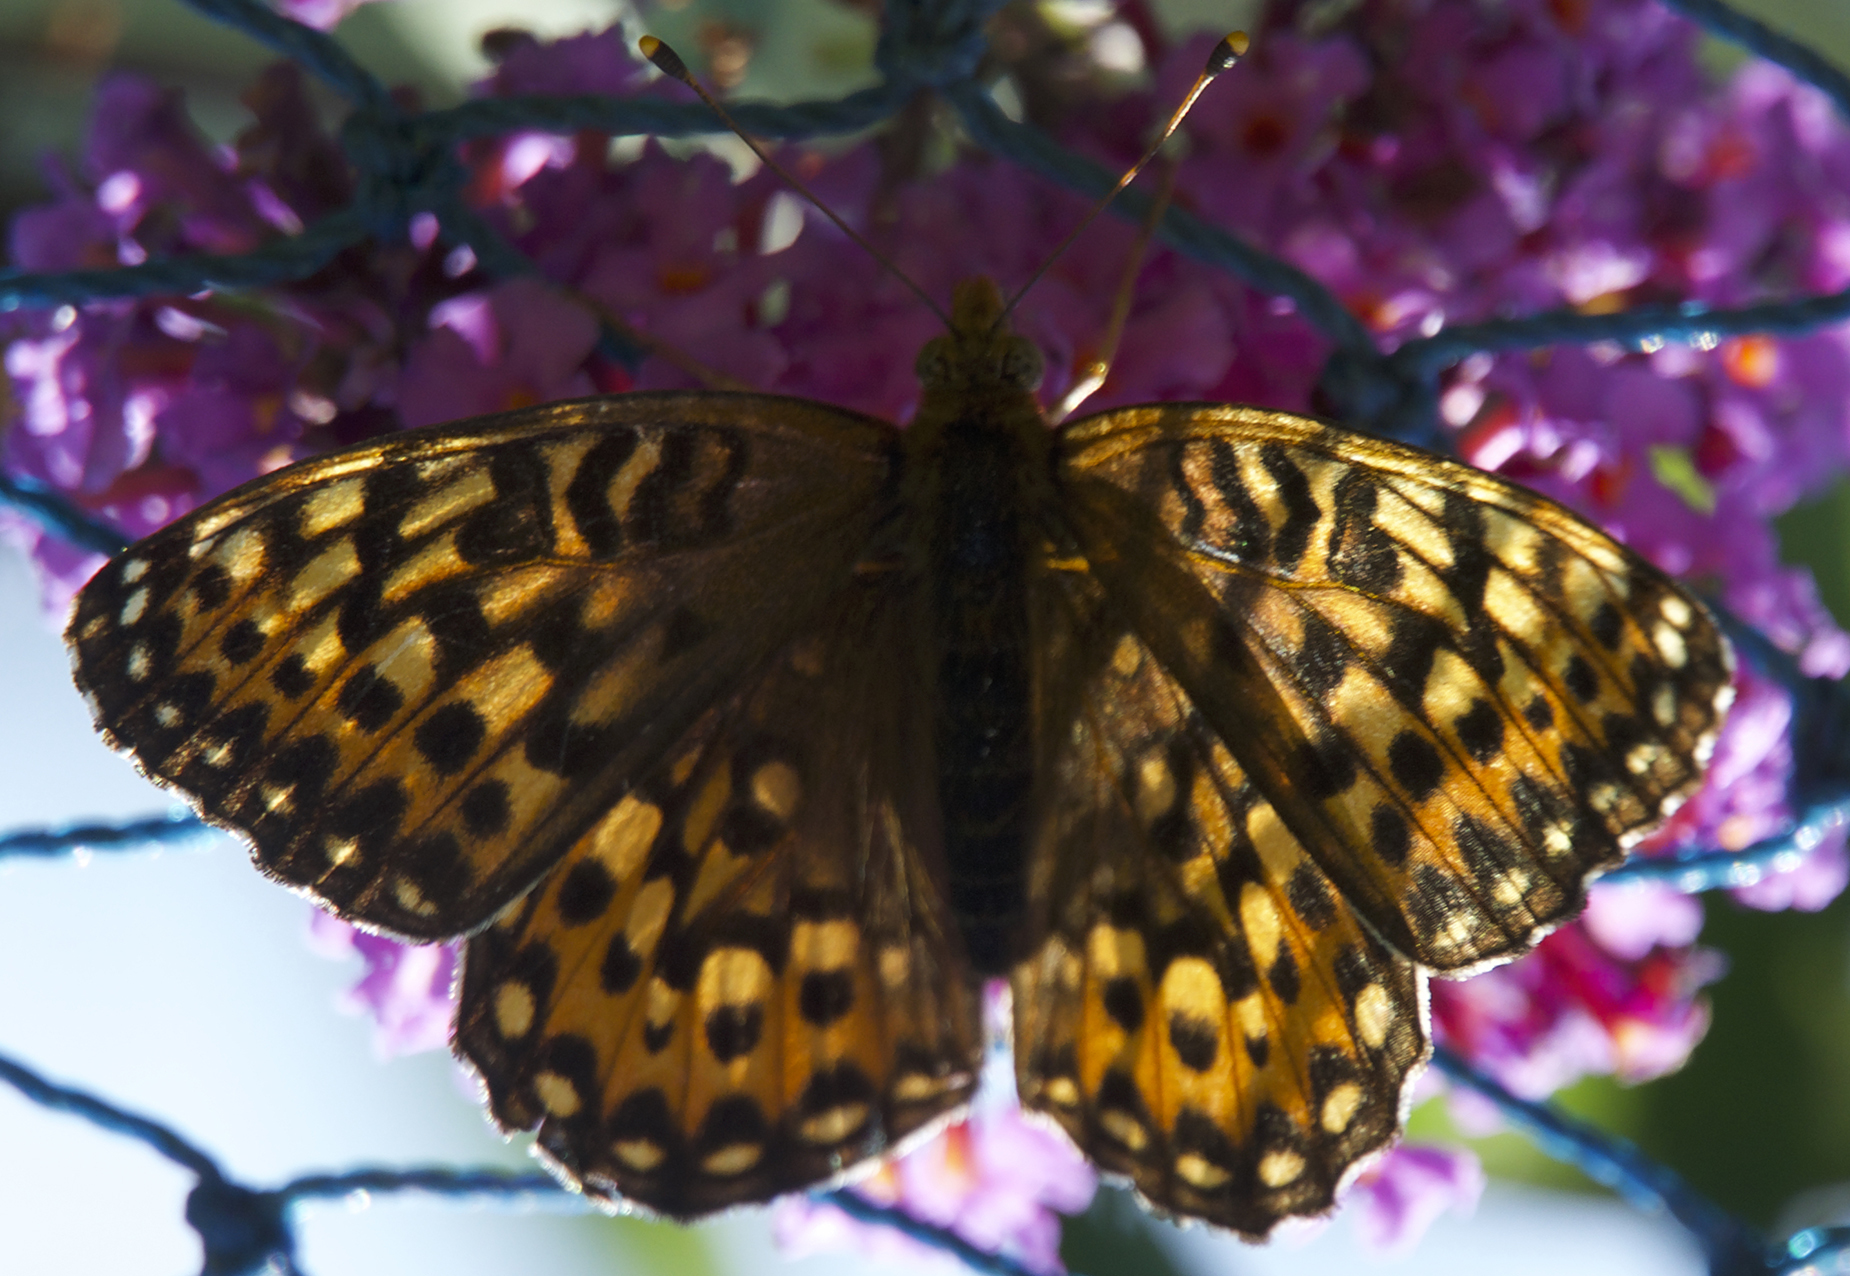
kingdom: Animalia
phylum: Arthropoda
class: Insecta
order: Lepidoptera
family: Nymphalidae
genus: Speyeria
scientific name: Speyeria hydaspe
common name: Hydaspe fritillary
